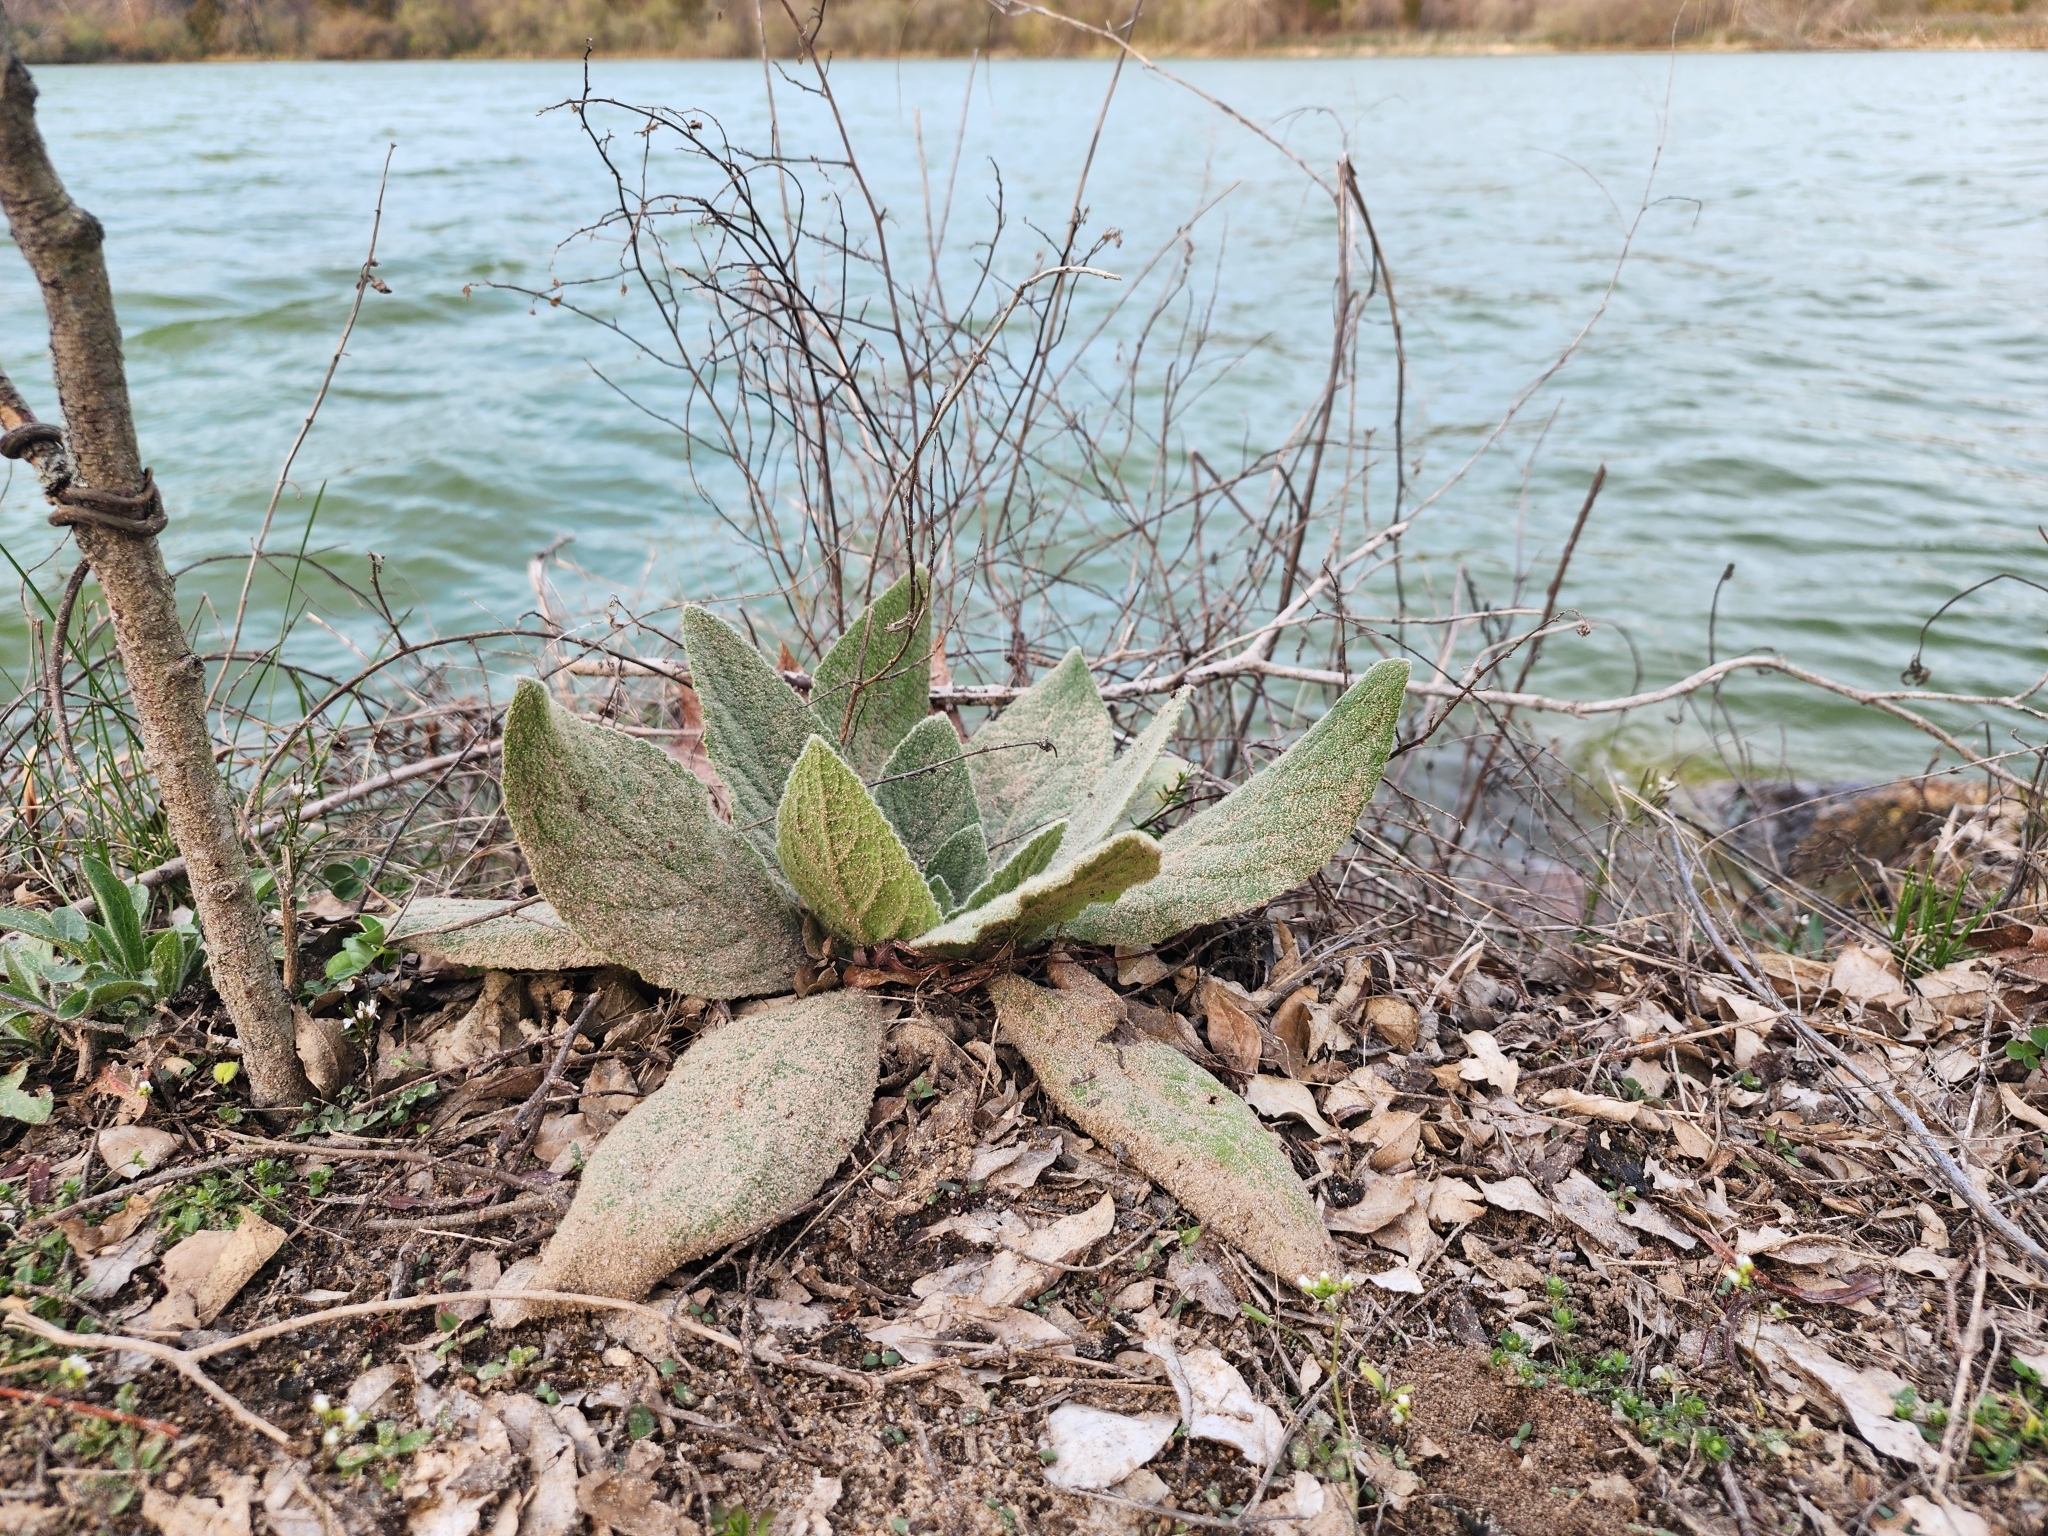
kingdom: Plantae
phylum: Tracheophyta
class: Magnoliopsida
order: Lamiales
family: Scrophulariaceae
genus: Verbascum
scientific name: Verbascum thapsus
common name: Common mullein
